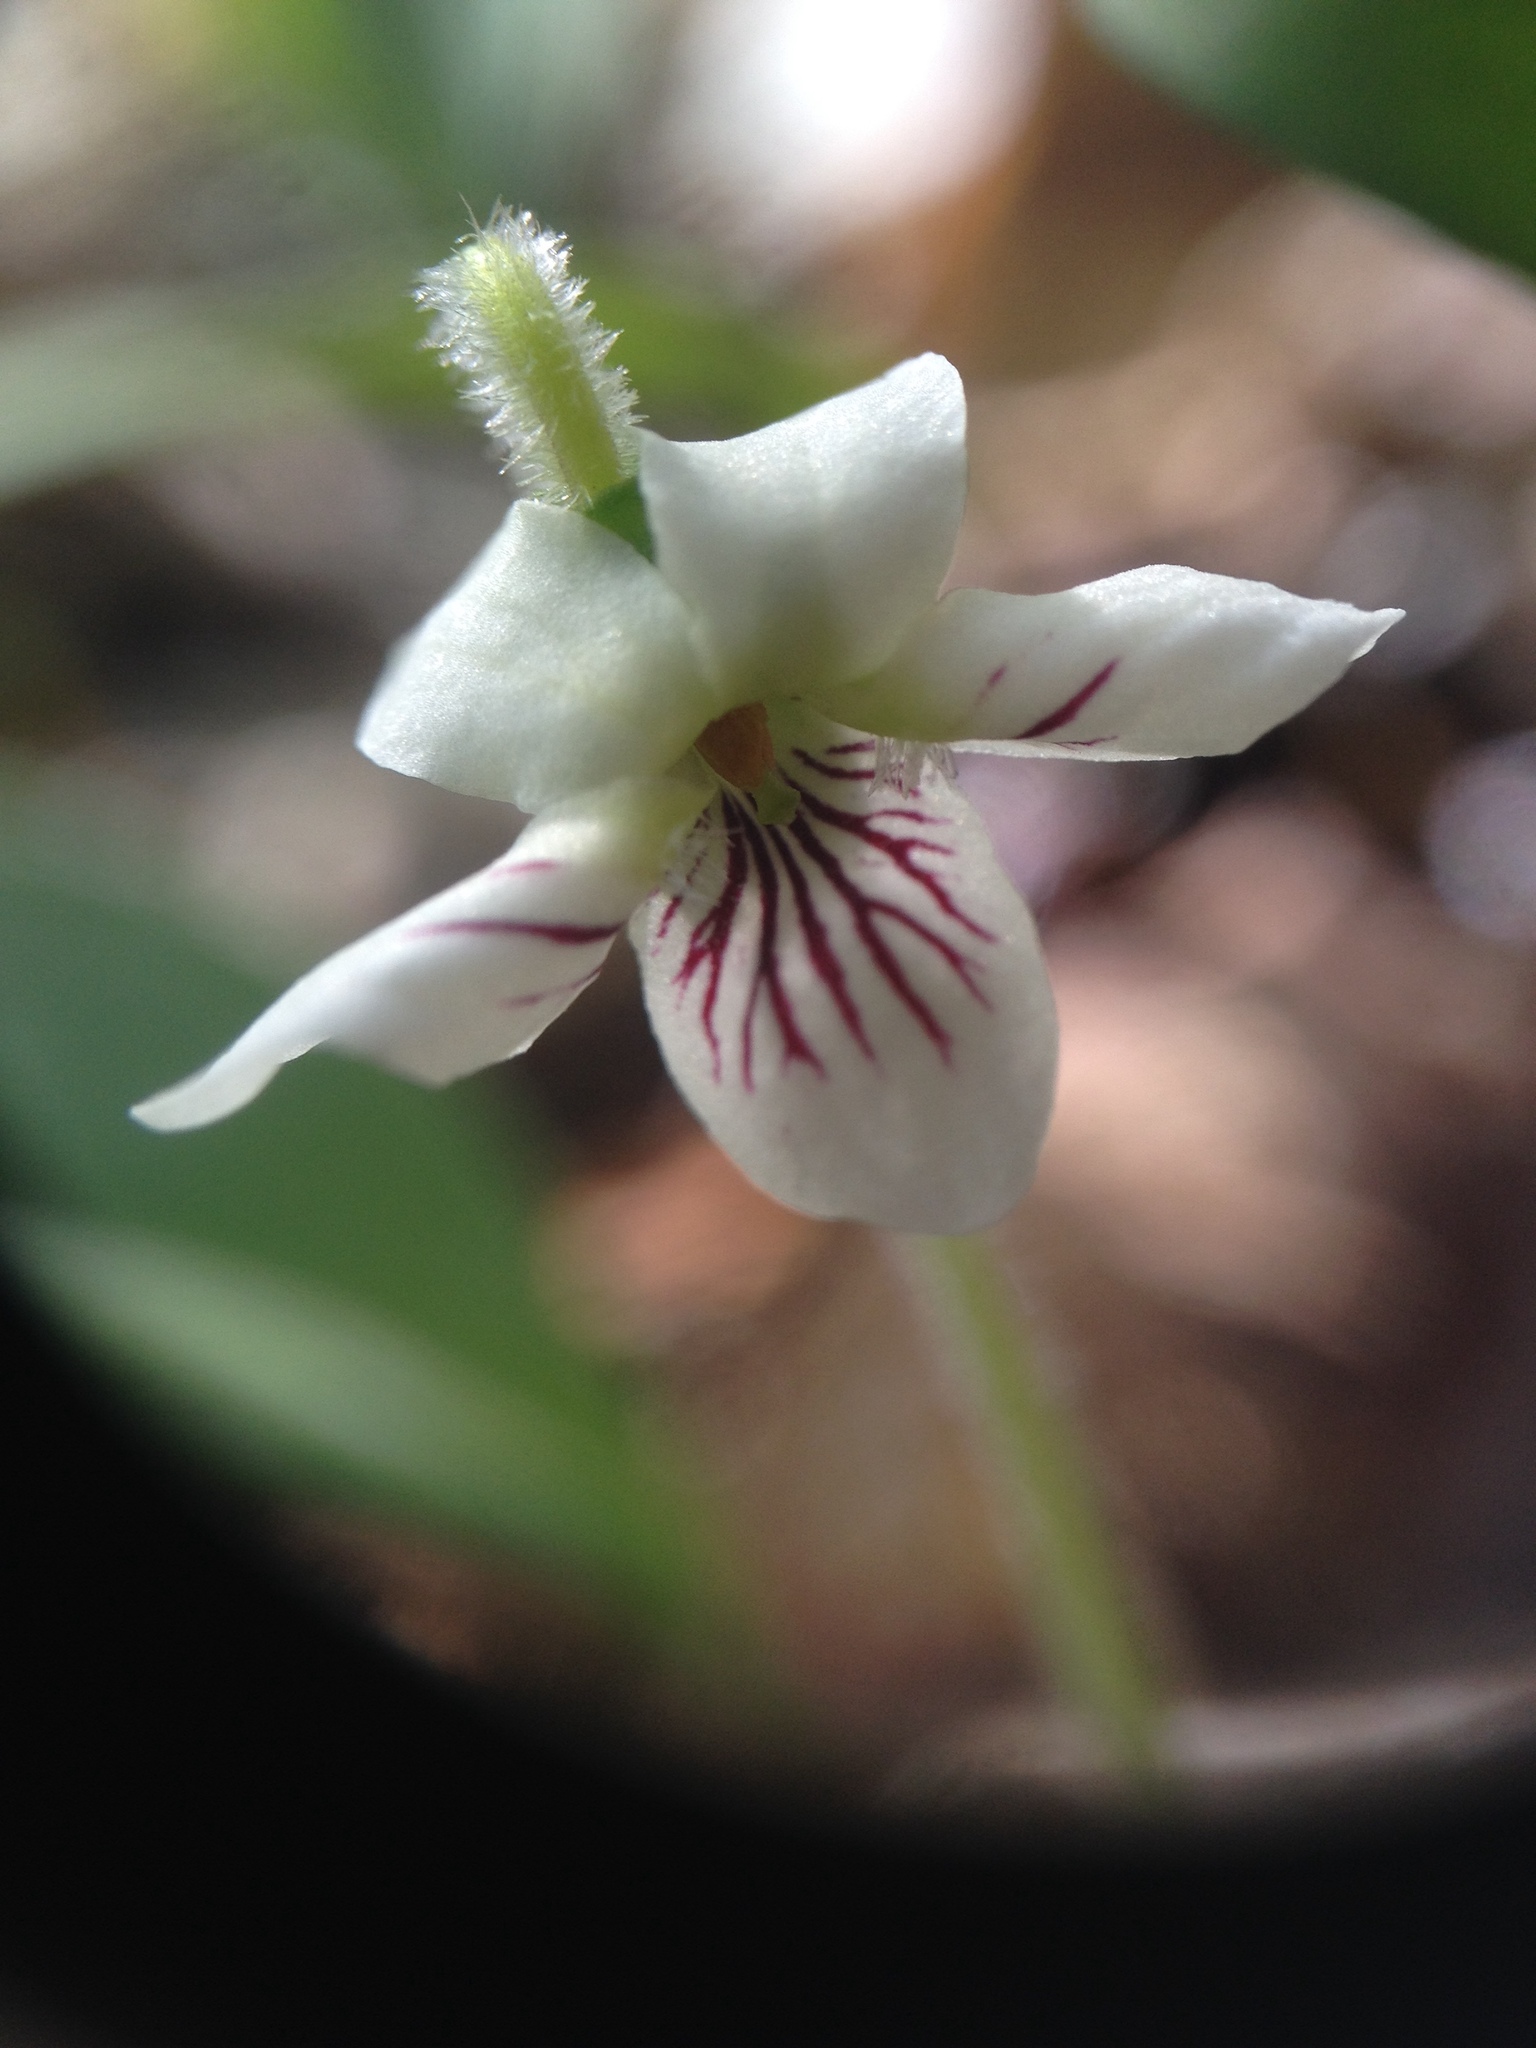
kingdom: Plantae
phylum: Tracheophyta
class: Magnoliopsida
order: Malpighiales
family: Violaceae
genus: Viola
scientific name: Viola blanda
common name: Sweet white violet
